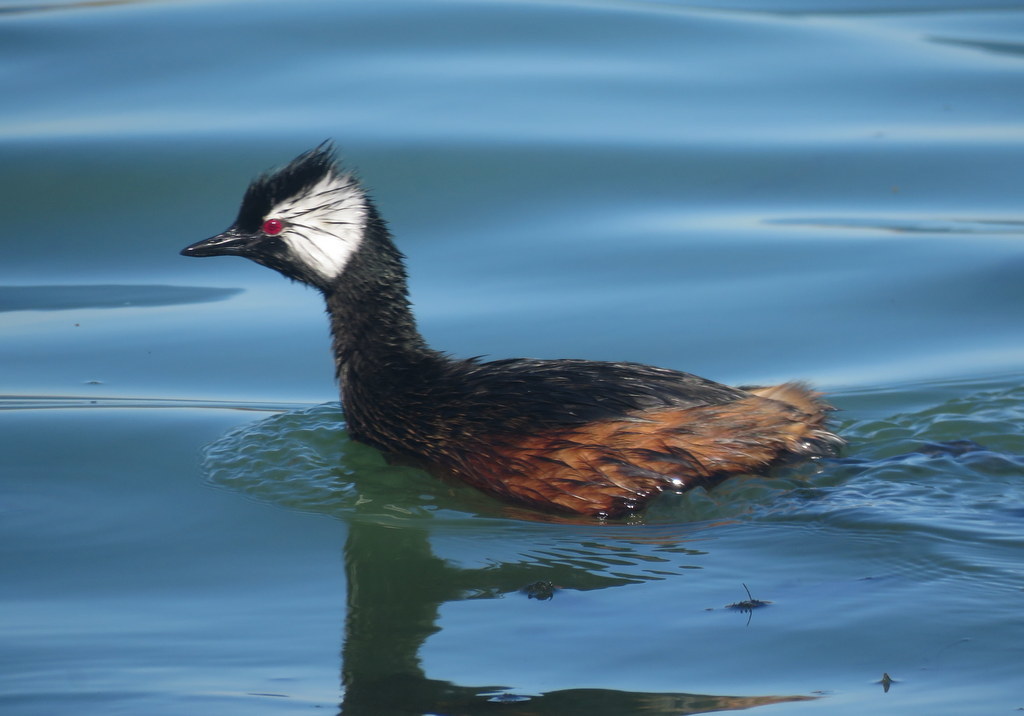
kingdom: Animalia
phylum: Chordata
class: Aves
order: Podicipediformes
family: Podicipedidae
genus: Rollandia
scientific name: Rollandia rolland
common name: White-tufted grebe
